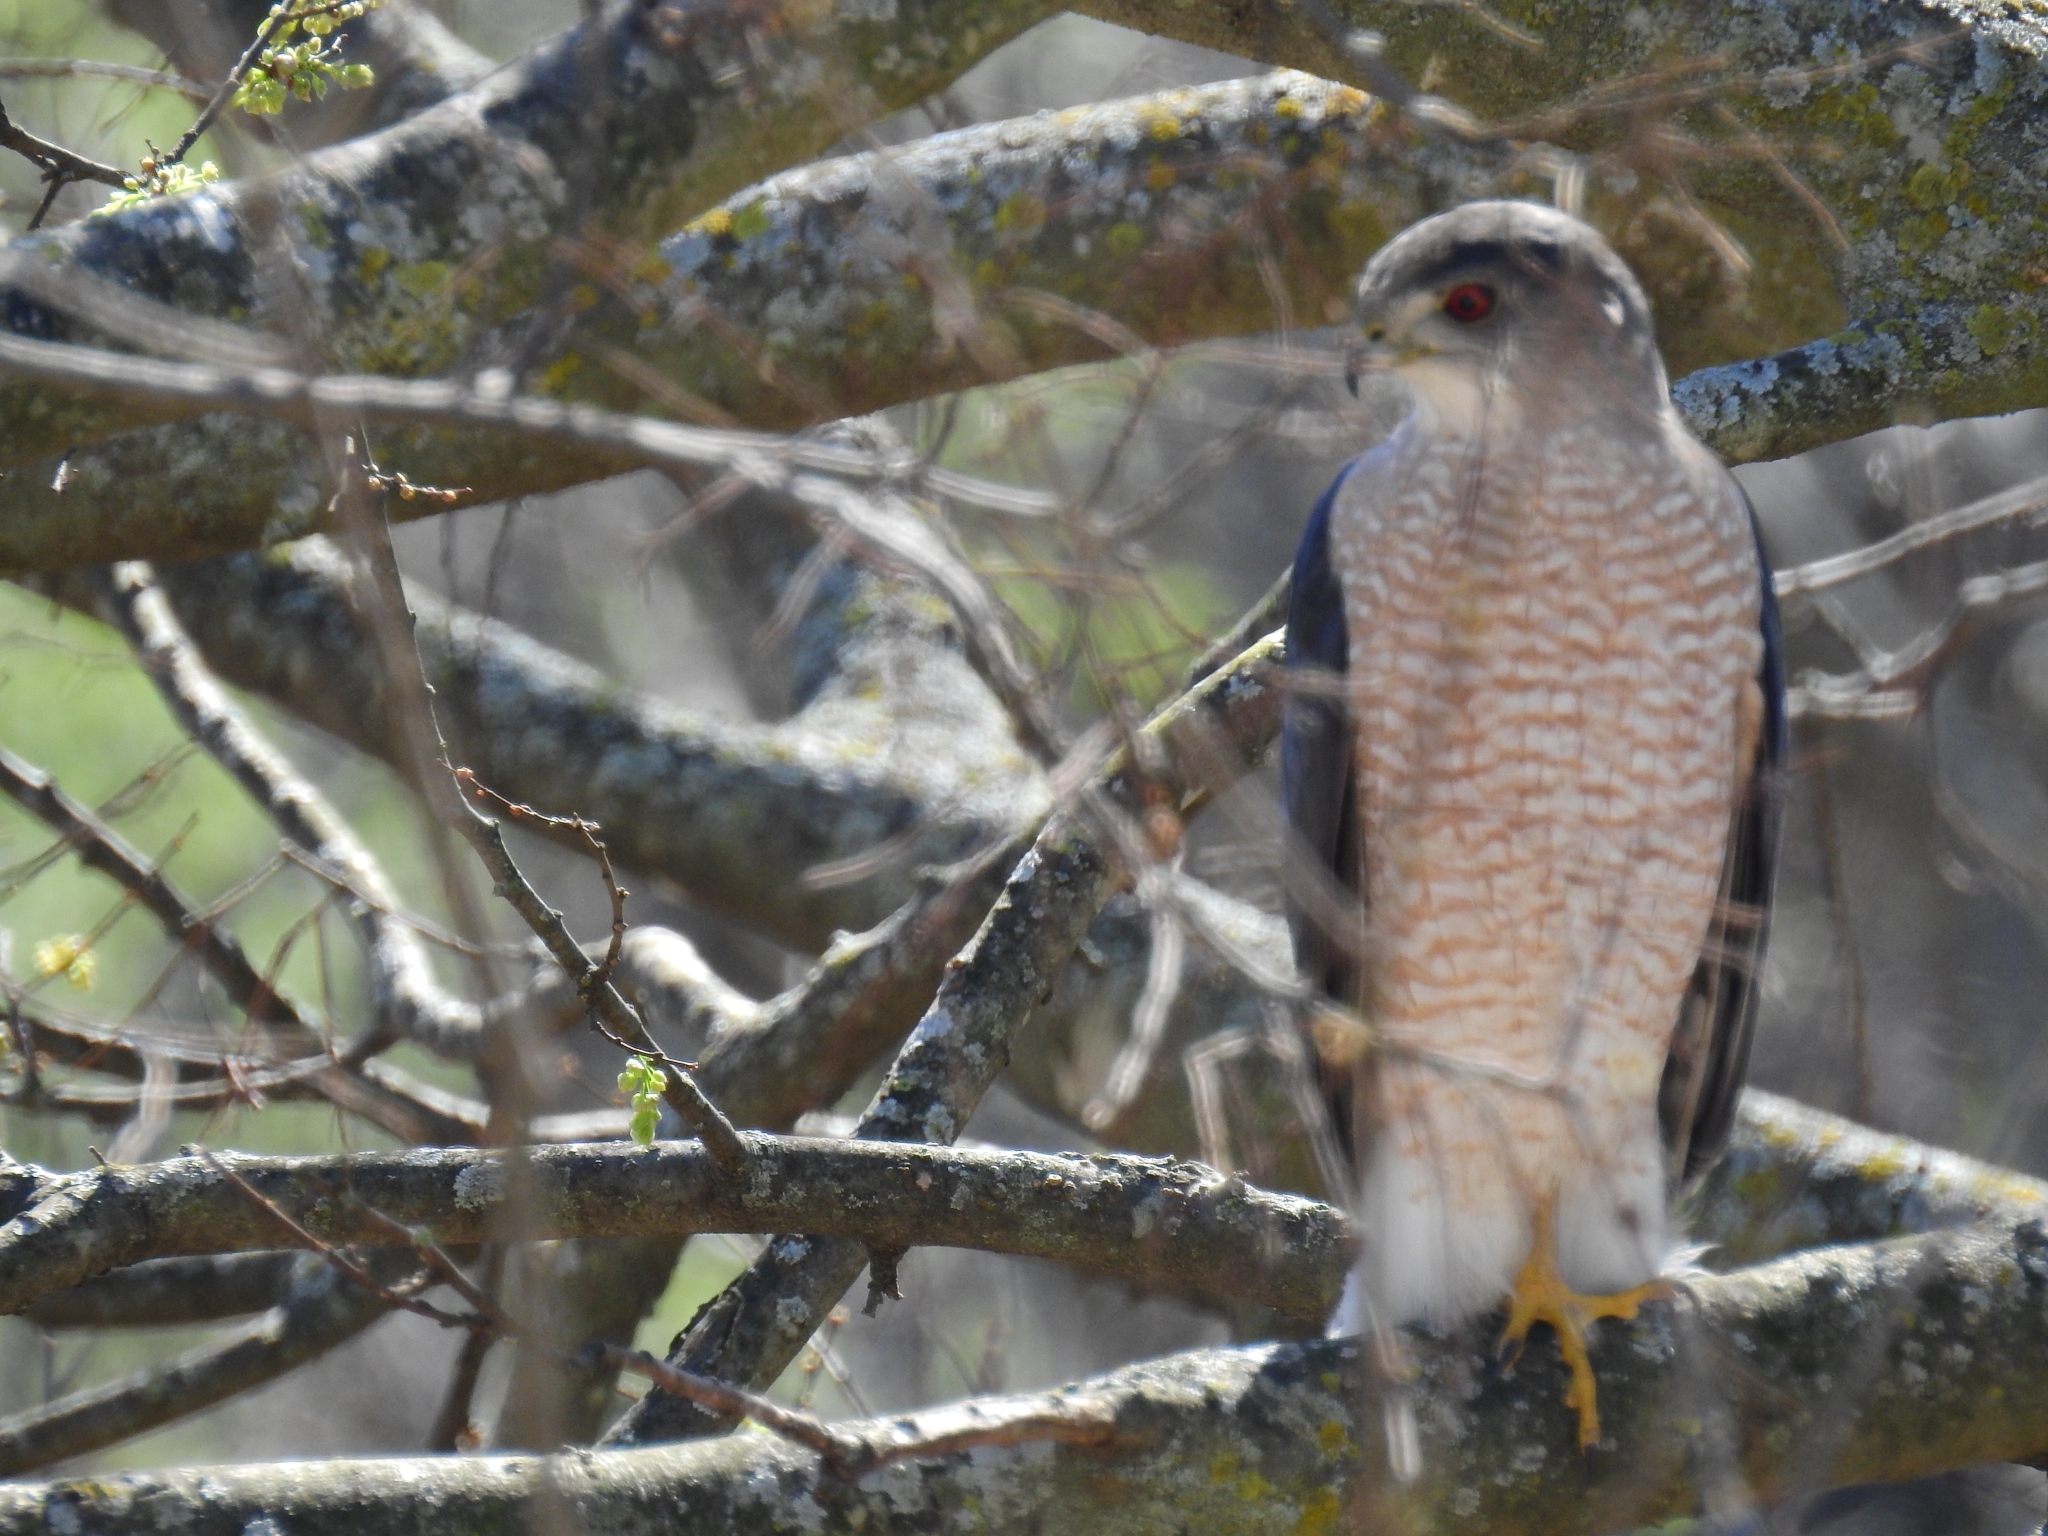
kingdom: Animalia
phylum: Chordata
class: Aves
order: Accipitriformes
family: Accipitridae
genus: Accipiter
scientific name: Accipiter cooperii
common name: Cooper's hawk
